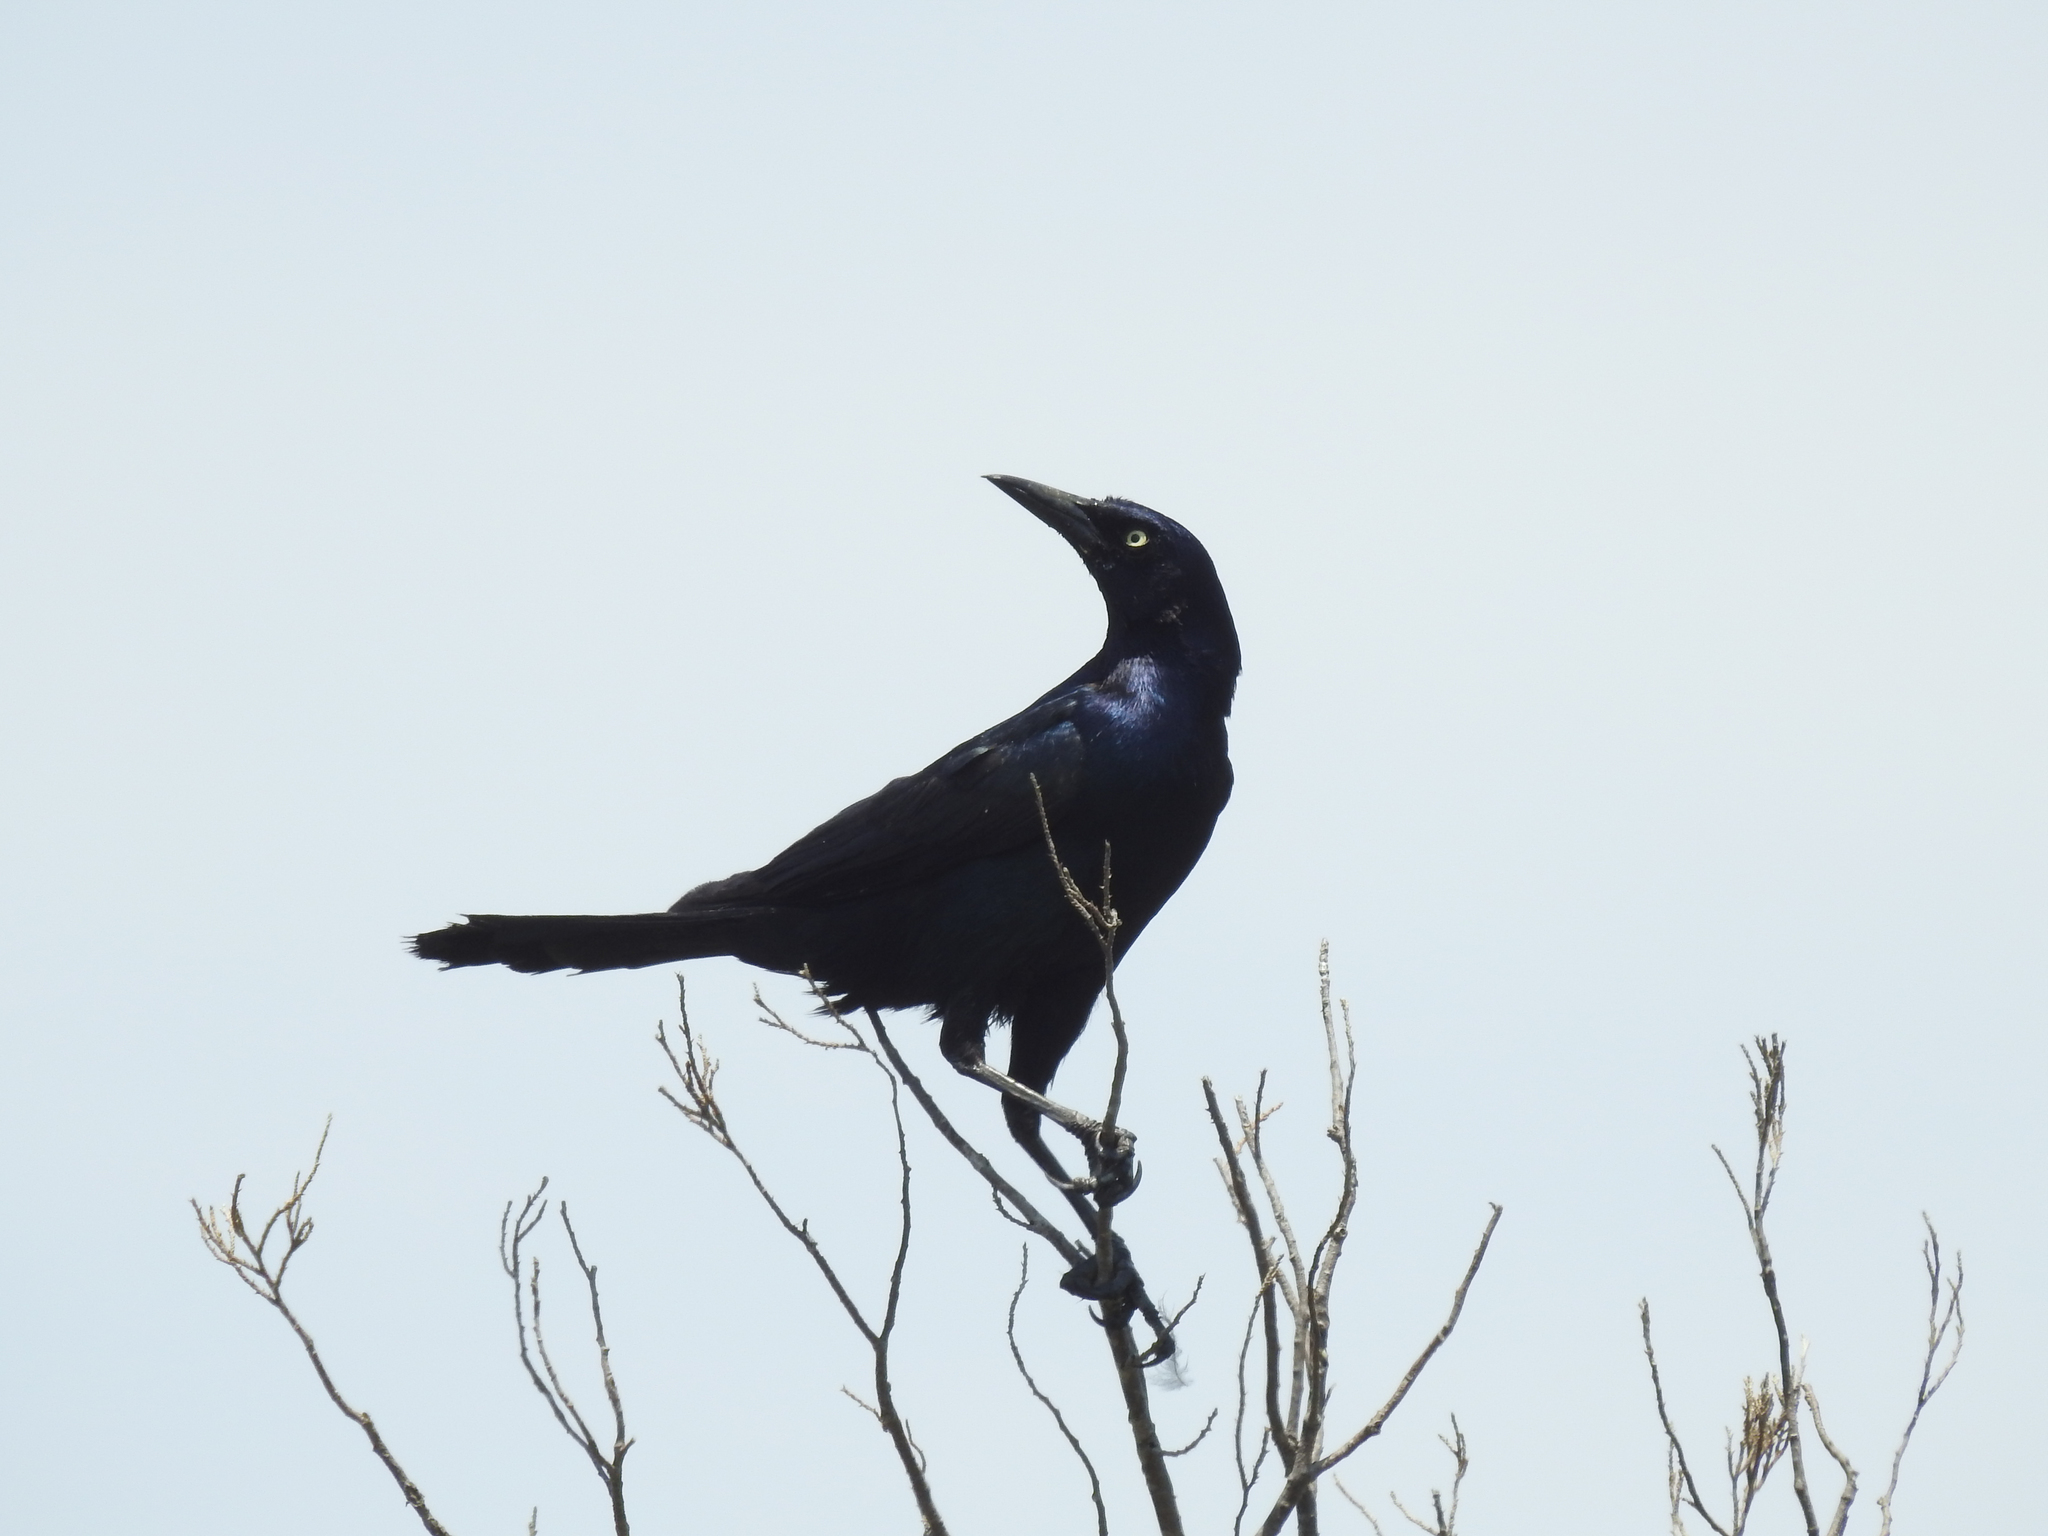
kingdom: Animalia
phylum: Chordata
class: Aves
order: Passeriformes
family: Icteridae
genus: Quiscalus
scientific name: Quiscalus major
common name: Boat-tailed grackle
